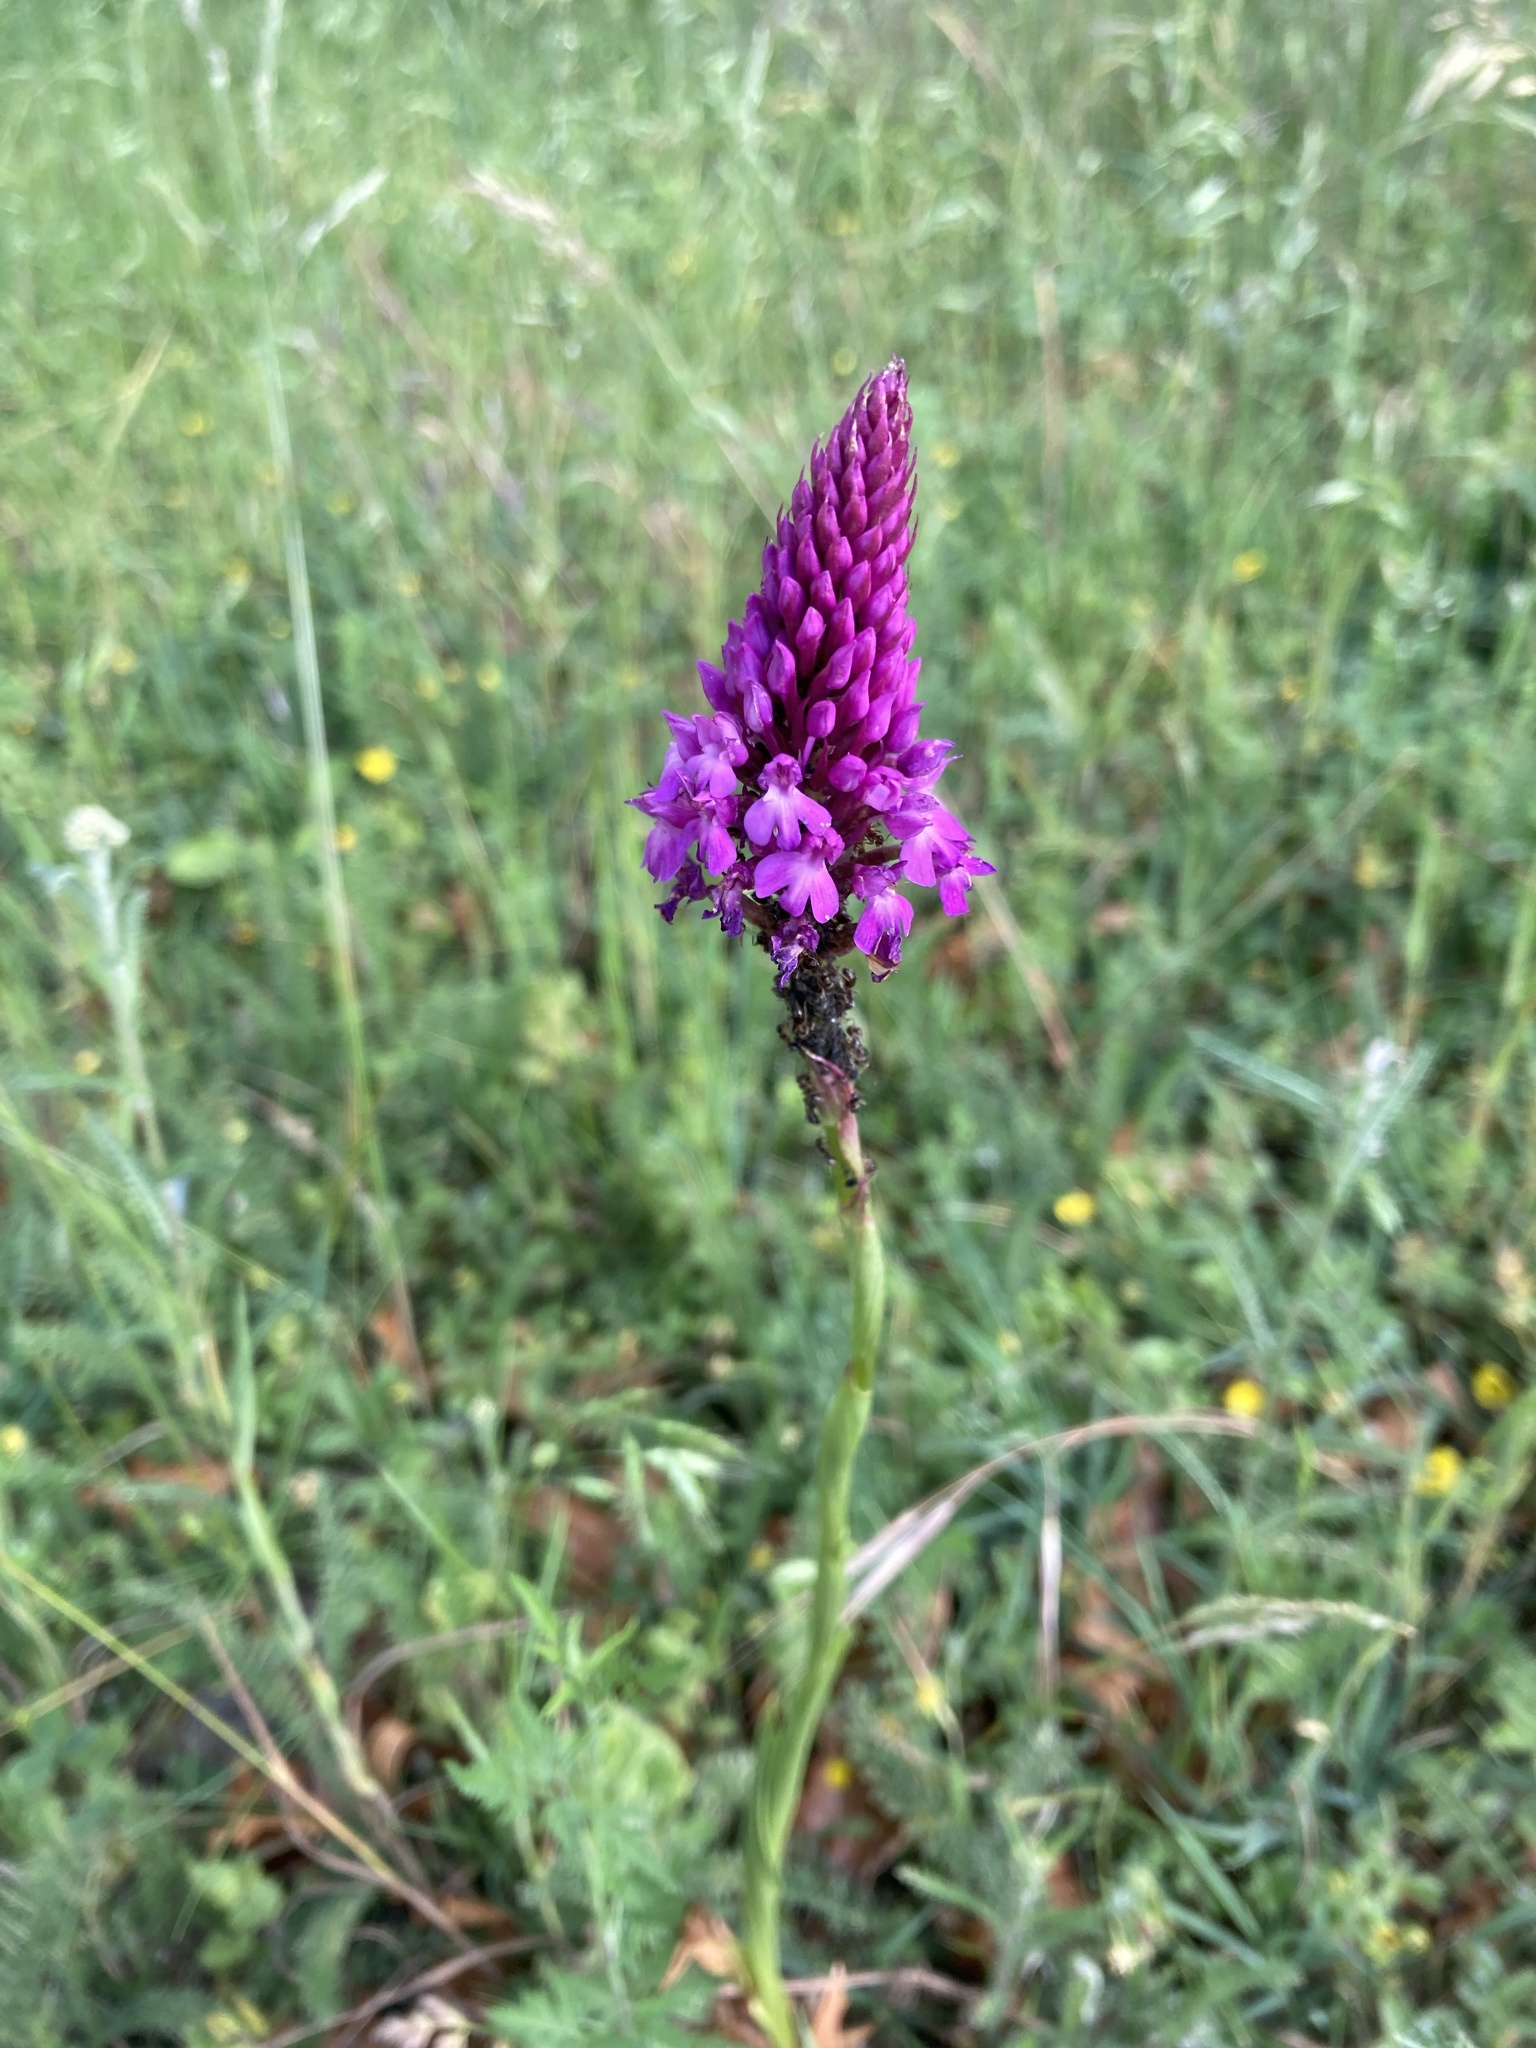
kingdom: Plantae
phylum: Tracheophyta
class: Liliopsida
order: Asparagales
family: Orchidaceae
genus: Anacamptis
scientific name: Anacamptis pyramidalis
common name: Pyramidal orchid
